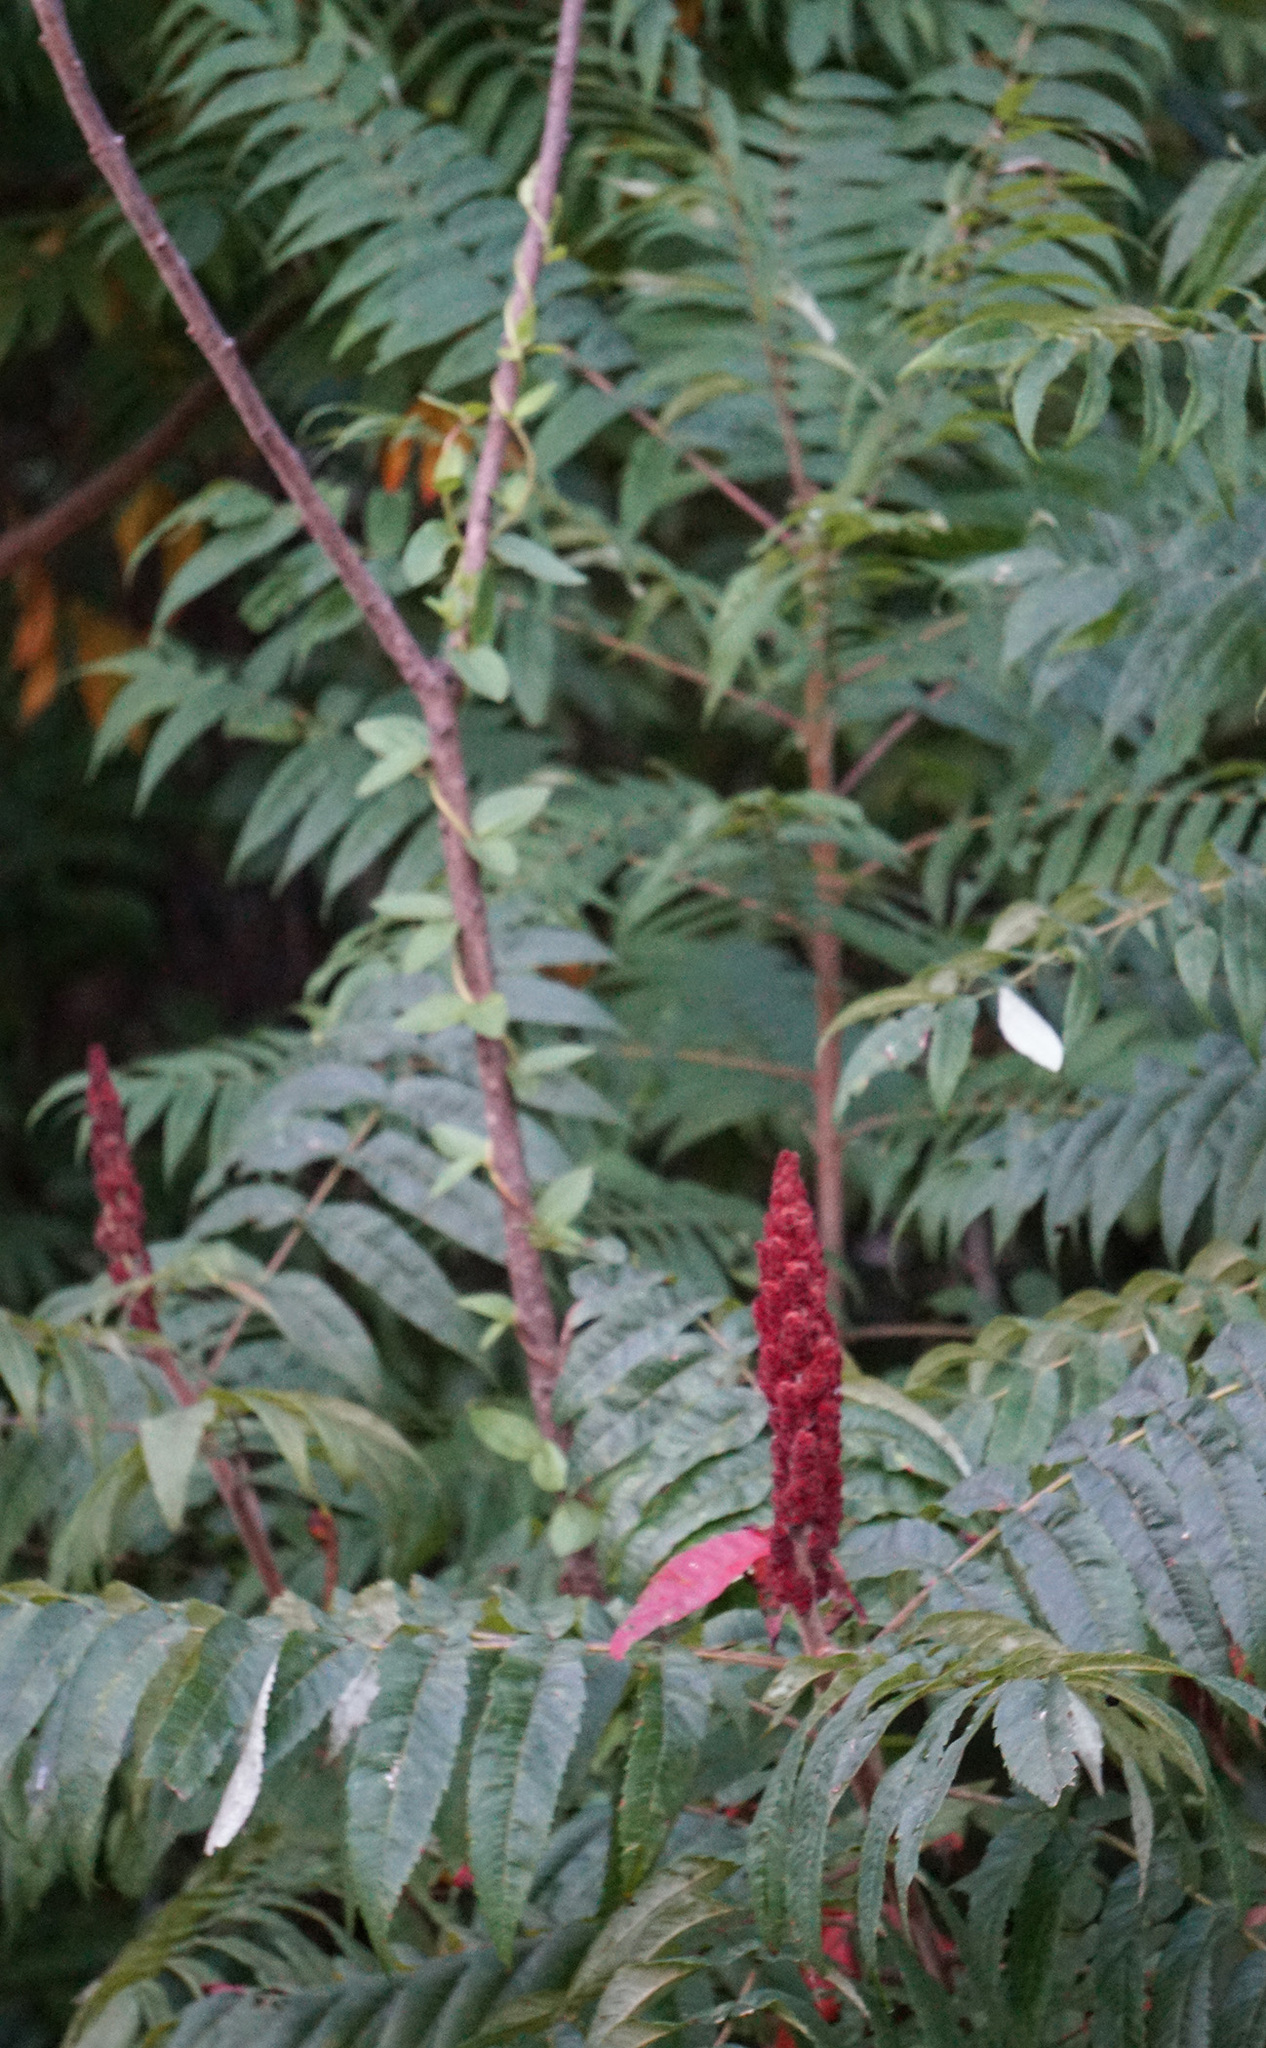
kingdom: Plantae
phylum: Tracheophyta
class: Magnoliopsida
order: Sapindales
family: Anacardiaceae
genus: Rhus
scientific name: Rhus typhina
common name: Staghorn sumac
